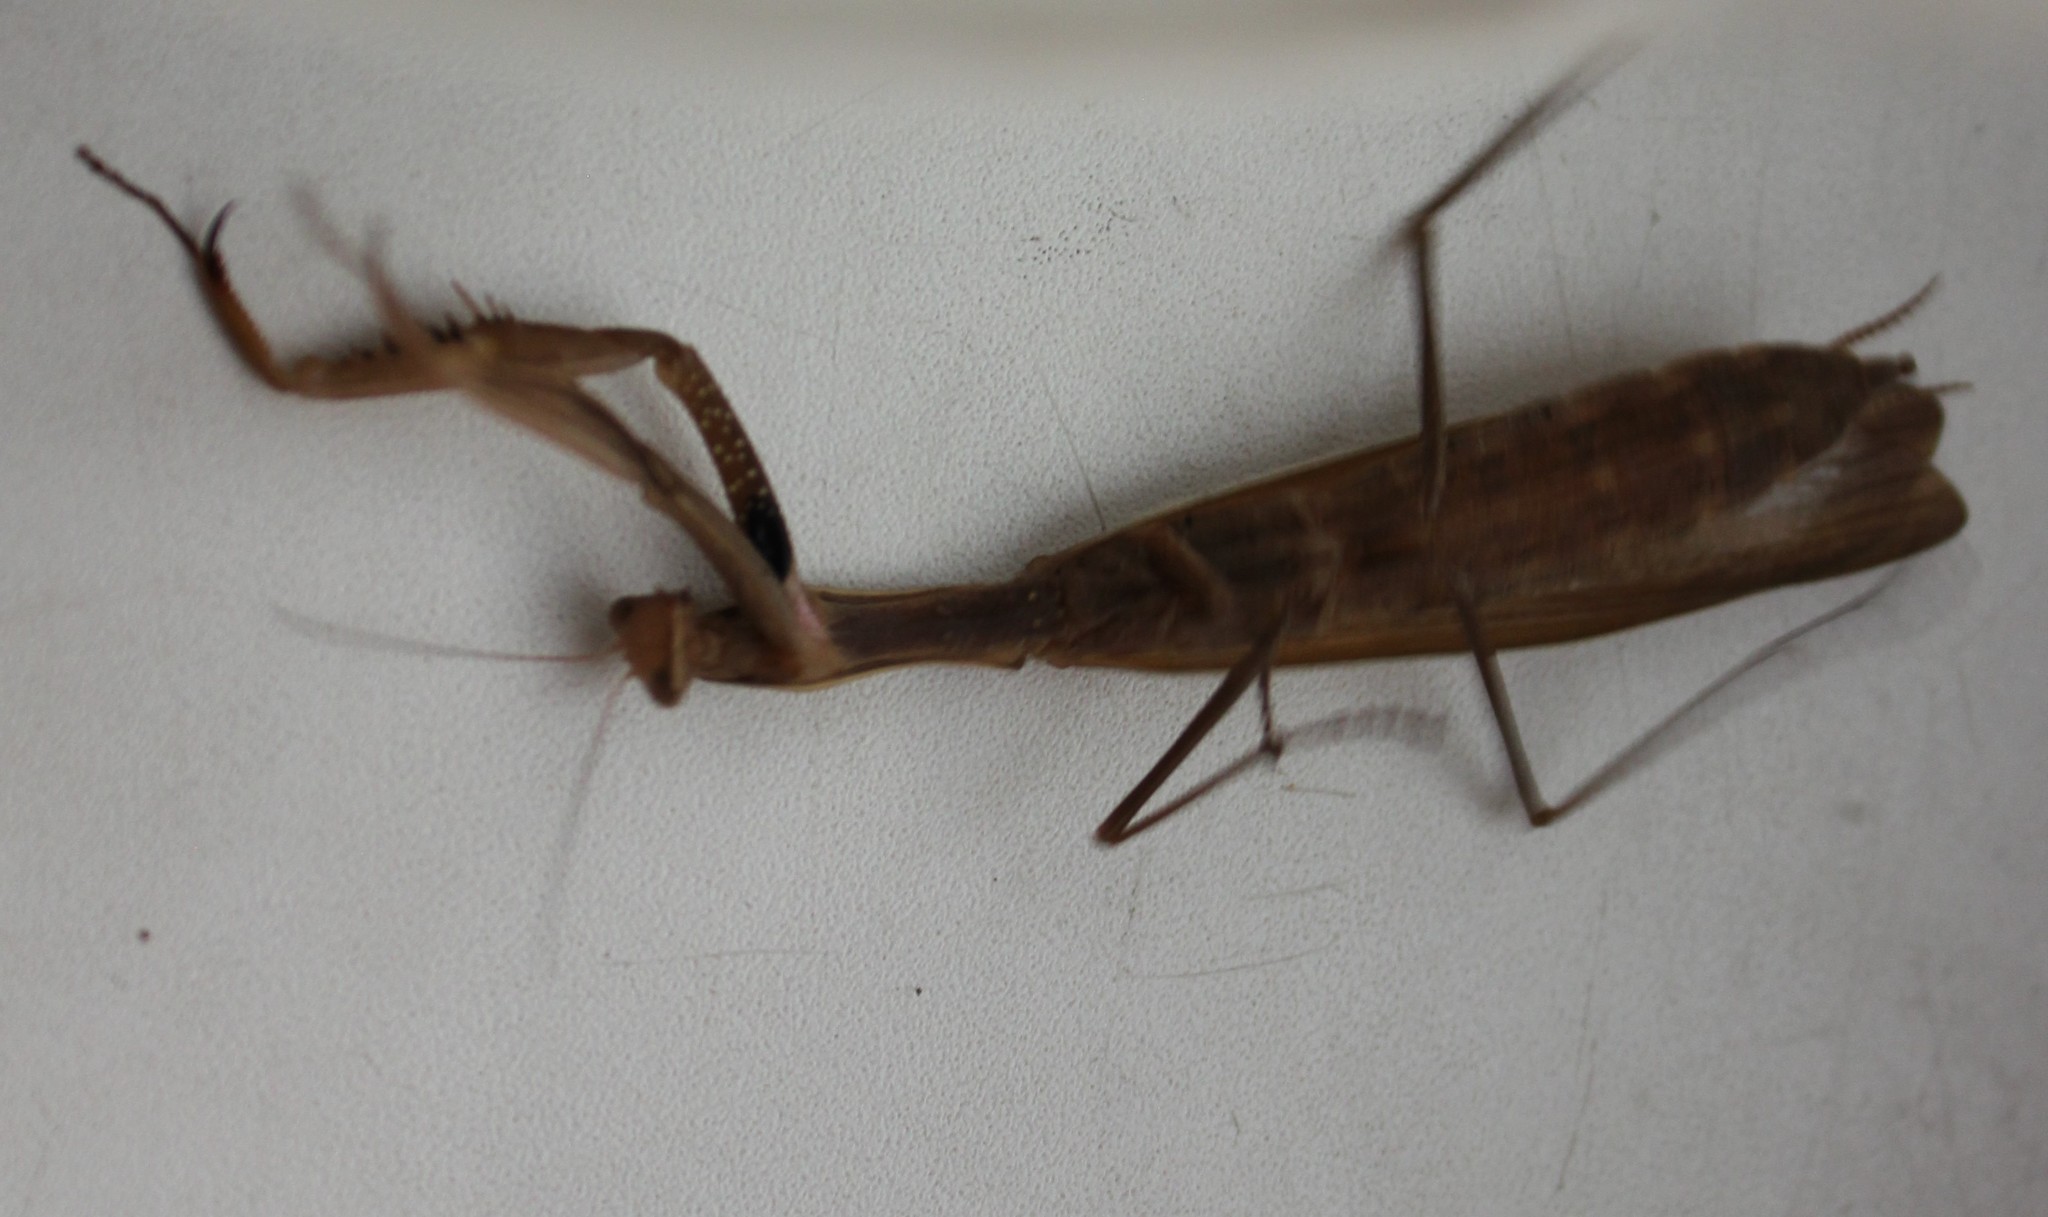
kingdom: Animalia
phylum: Arthropoda
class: Insecta
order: Mantodea
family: Mantidae
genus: Mantis
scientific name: Mantis religiosa
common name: Praying mantis
